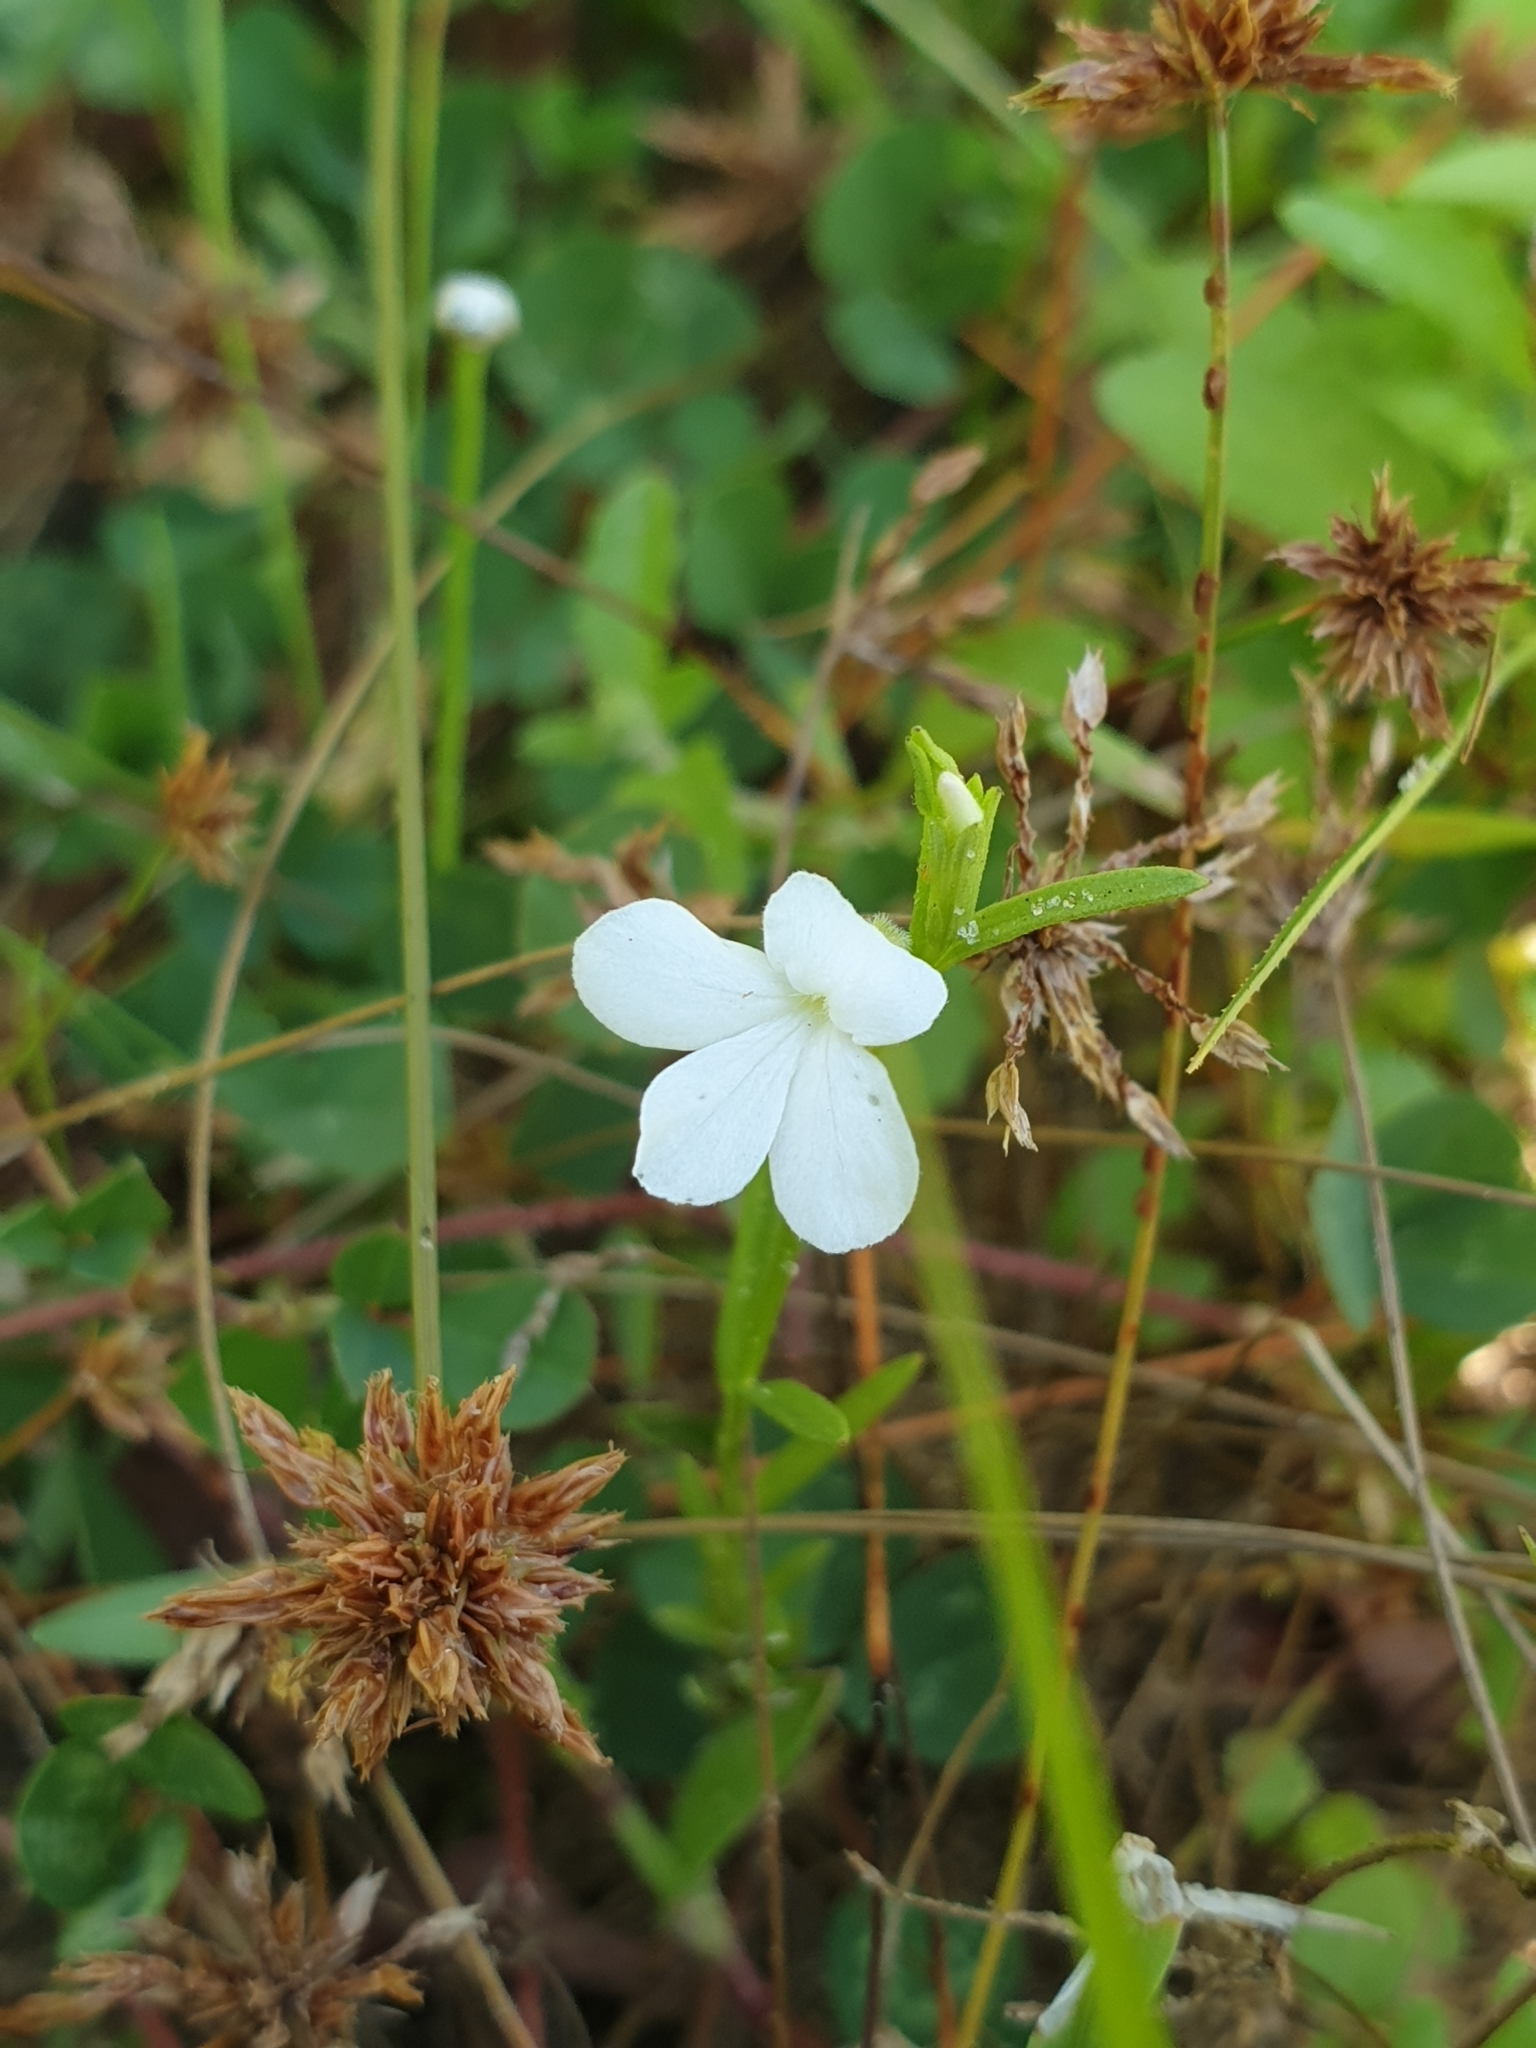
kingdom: Plantae
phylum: Tracheophyta
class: Magnoliopsida
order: Lamiales
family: Orobanchaceae
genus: Striga
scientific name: Striga angustifolia
